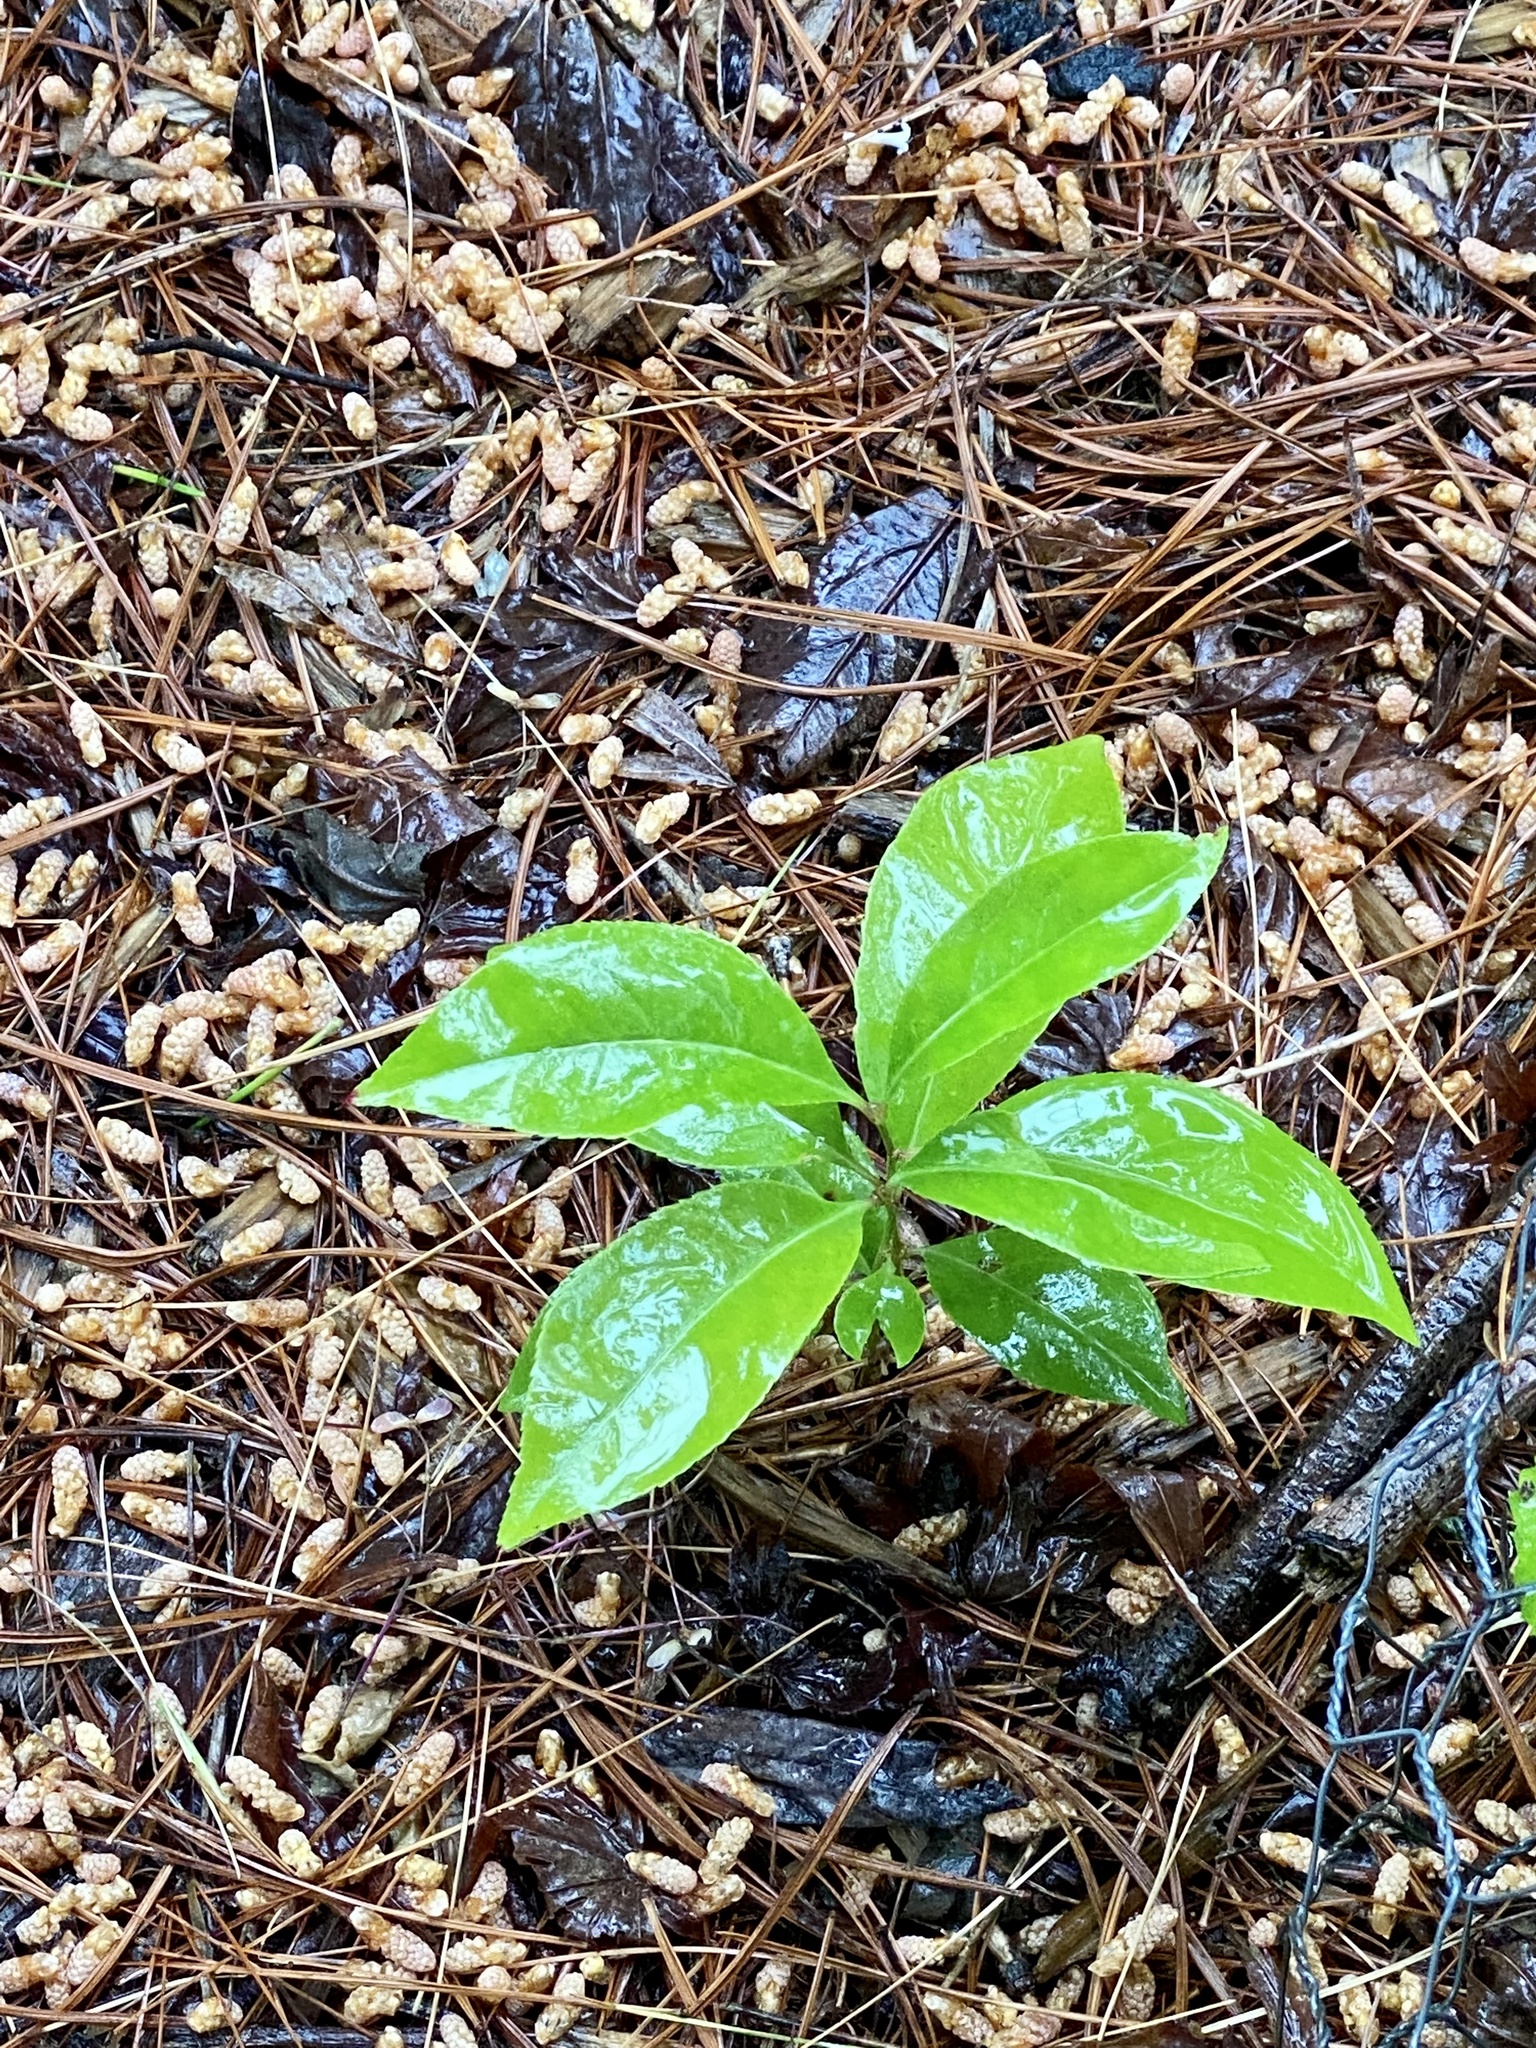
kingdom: Plantae
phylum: Tracheophyta
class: Magnoliopsida
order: Rosales
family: Rosaceae
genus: Prunus
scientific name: Prunus serotina
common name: Black cherry
